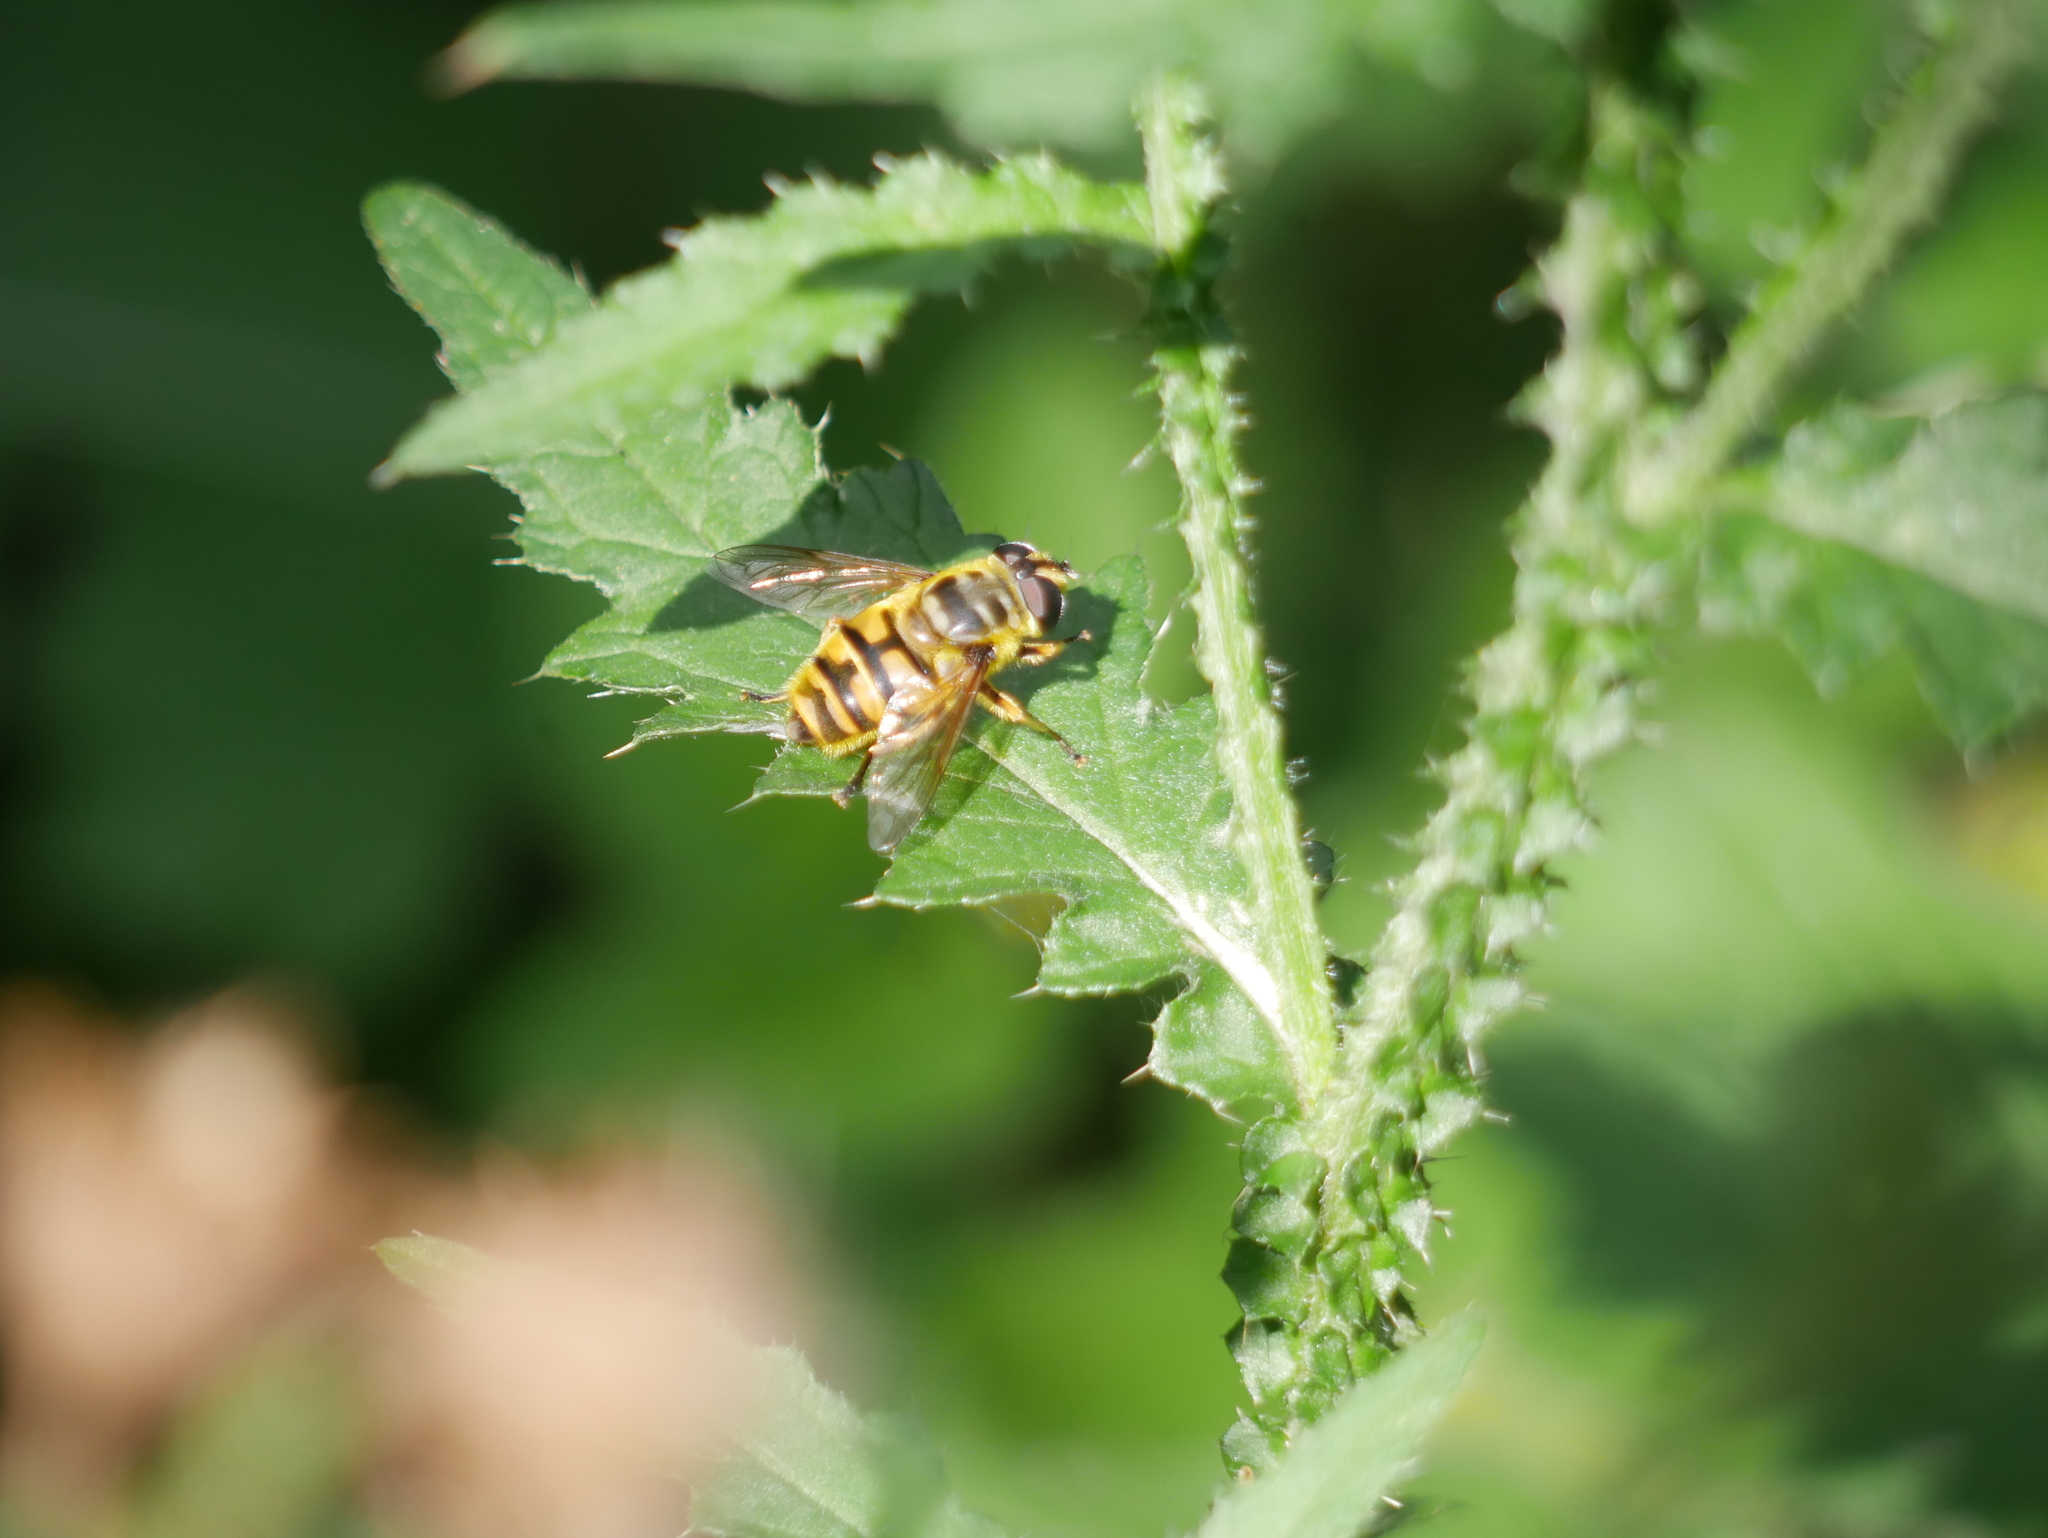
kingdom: Plantae
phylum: Tracheophyta
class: Magnoliopsida
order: Asterales
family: Asteraceae
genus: Carduus
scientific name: Carduus crispus
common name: Welted thistle
